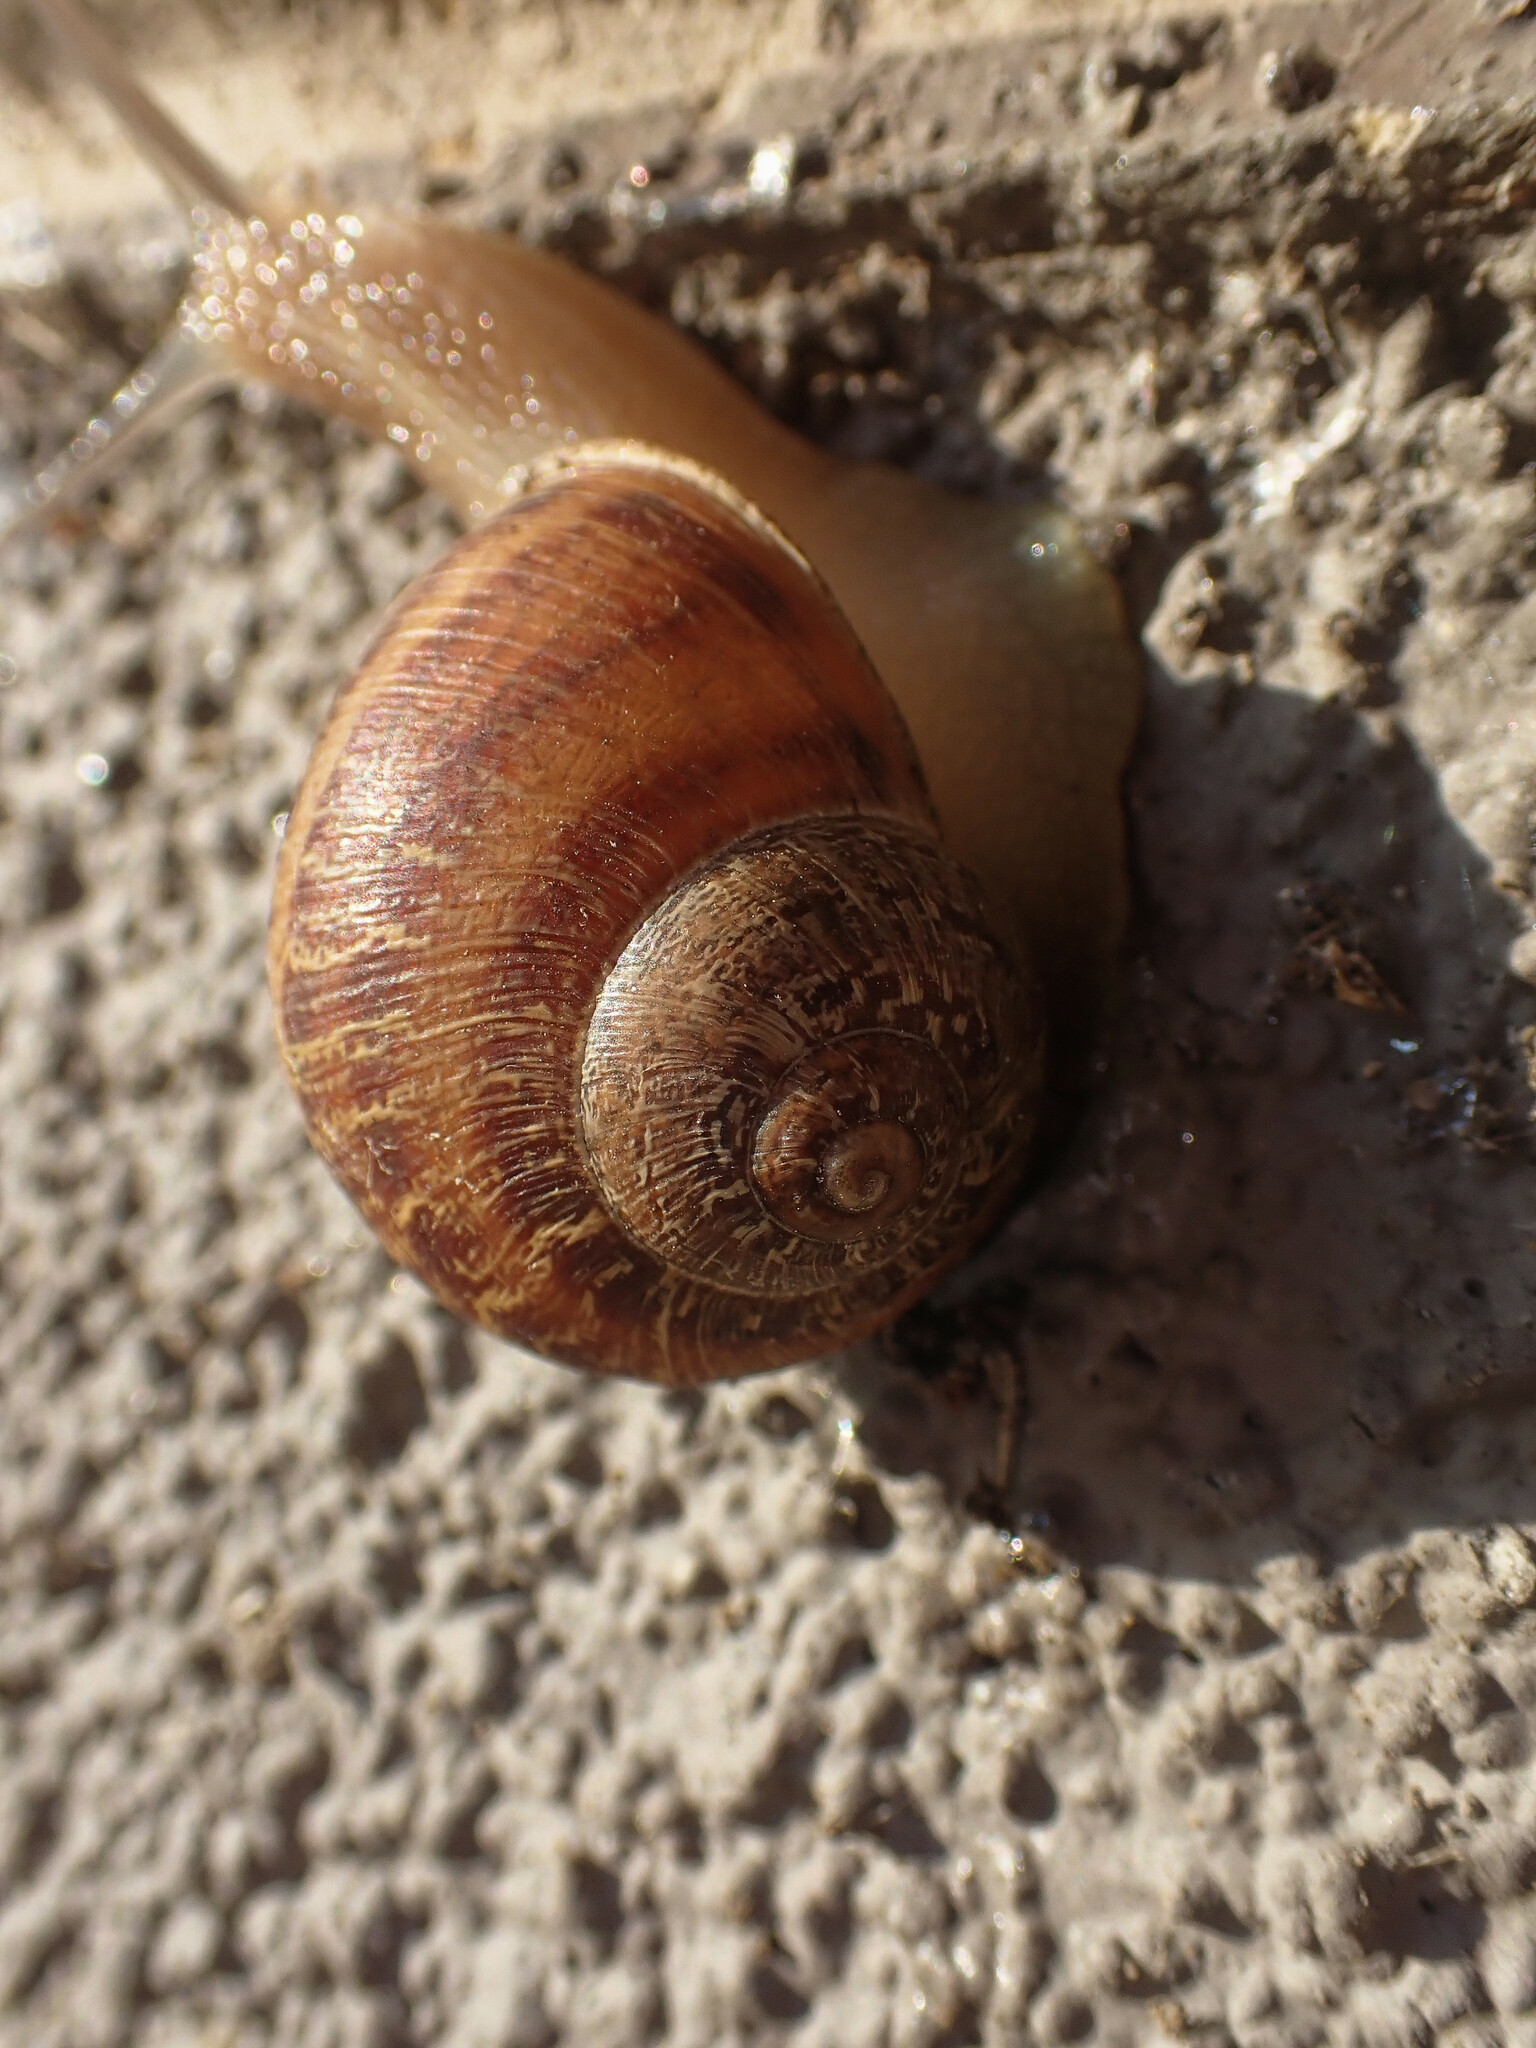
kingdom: Animalia
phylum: Mollusca
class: Gastropoda
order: Stylommatophora
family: Helicidae
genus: Cornu
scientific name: Cornu aspersum
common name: Brown garden snail
